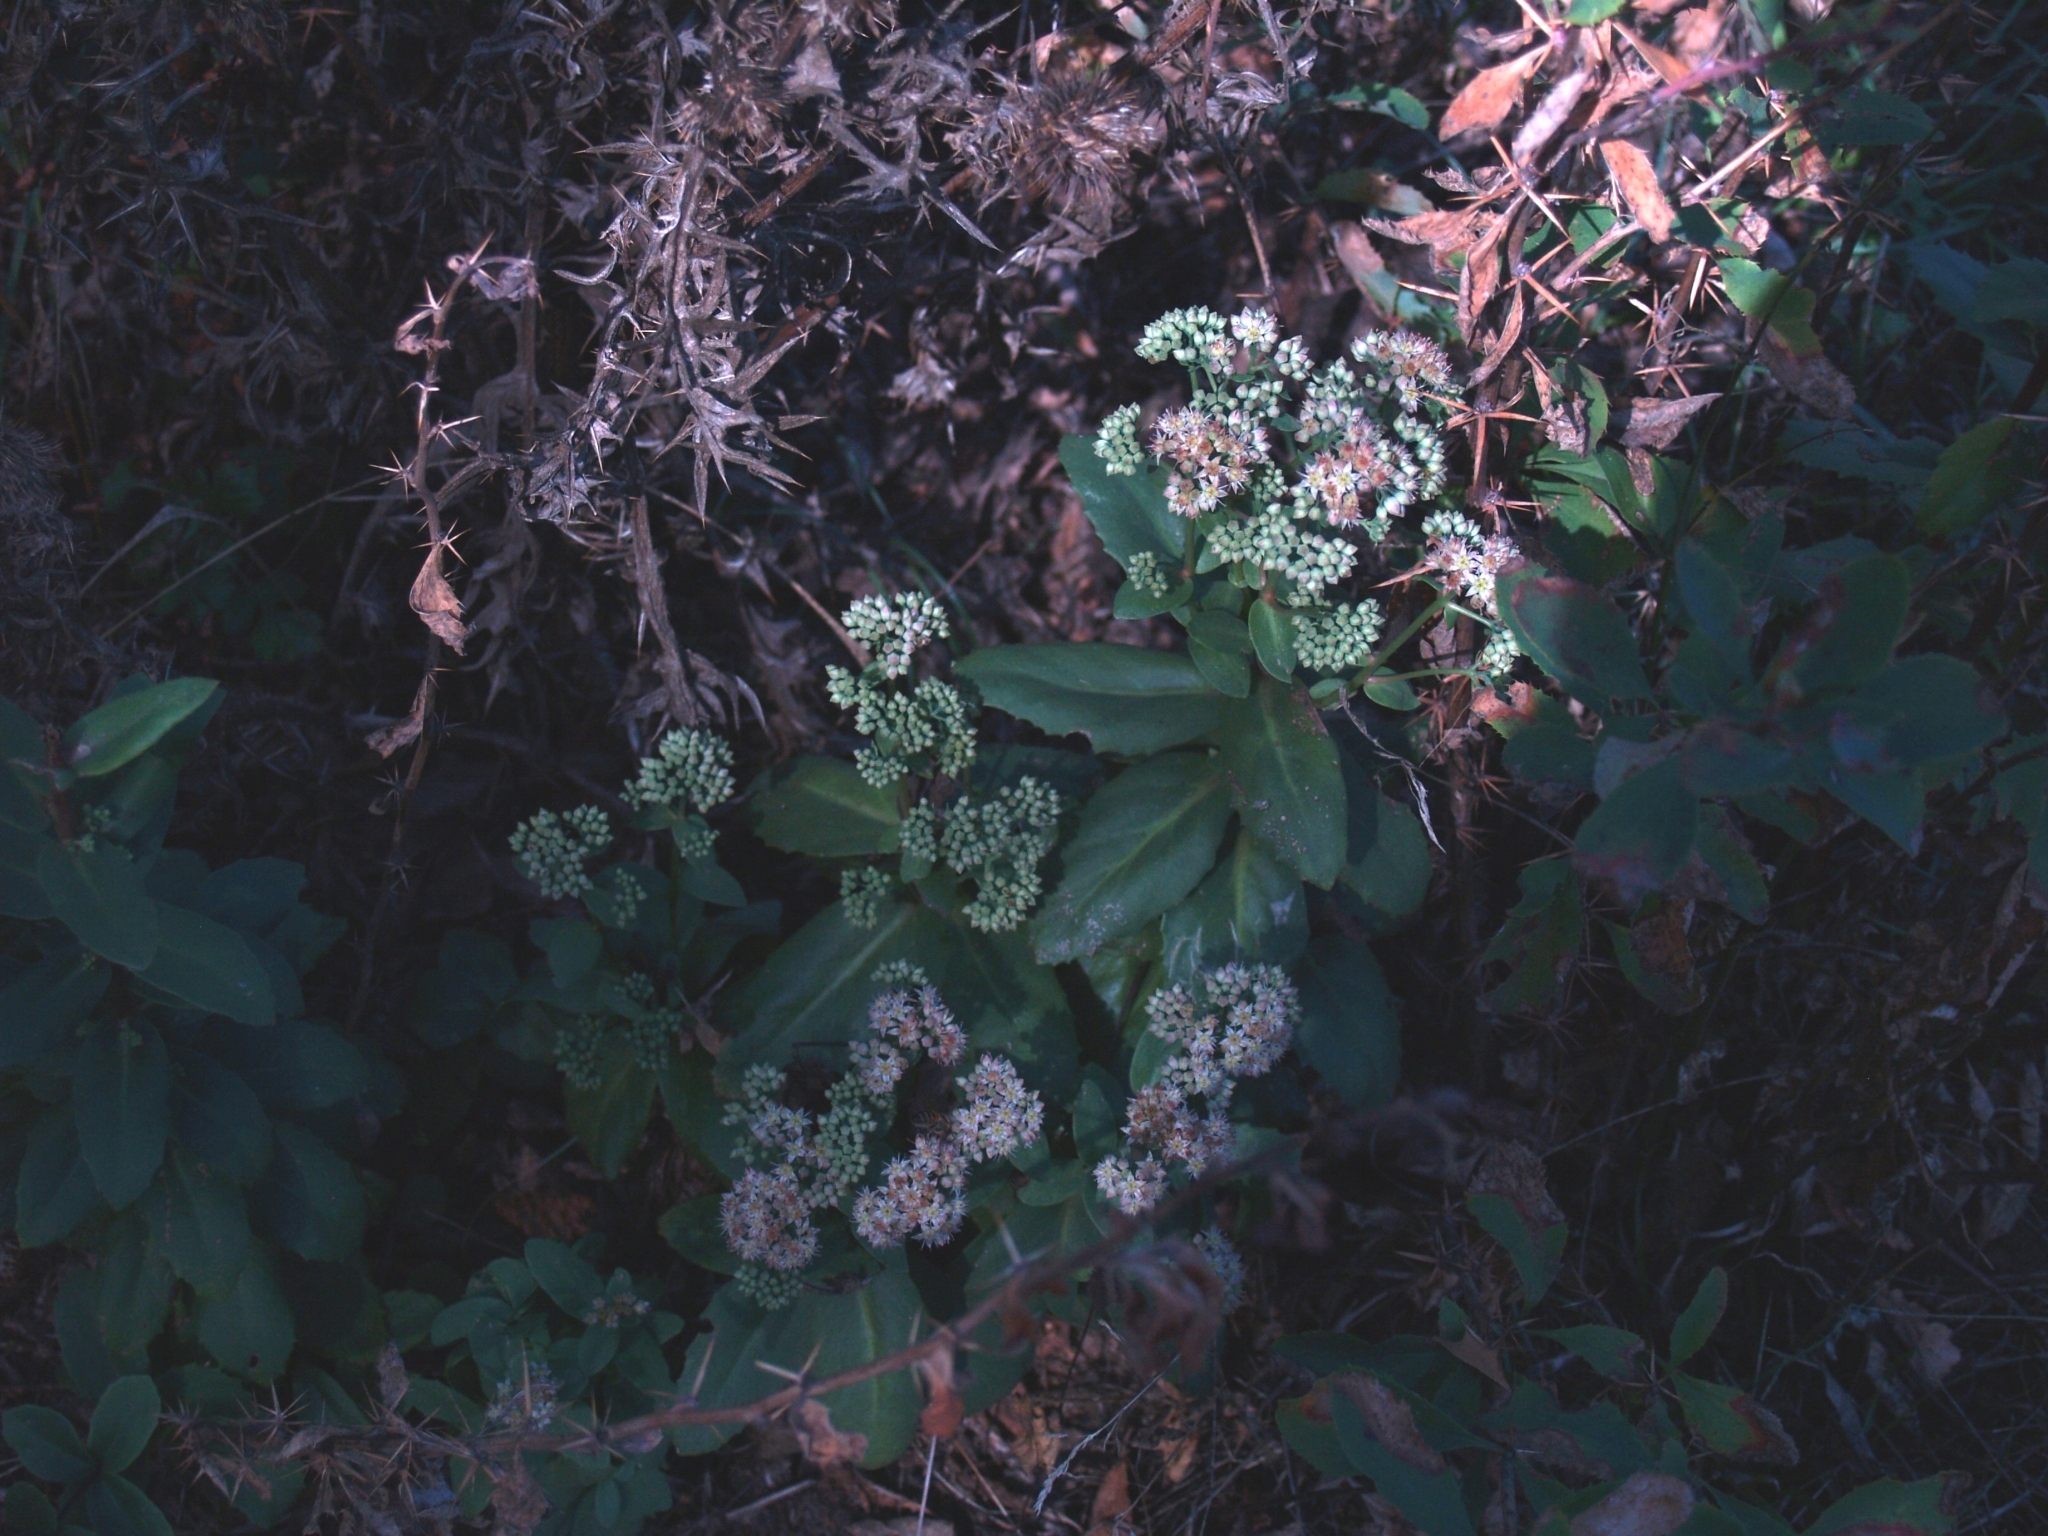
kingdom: Plantae
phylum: Tracheophyta
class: Magnoliopsida
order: Saxifragales
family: Crassulaceae
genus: Hylotelephium
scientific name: Hylotelephium maximum
